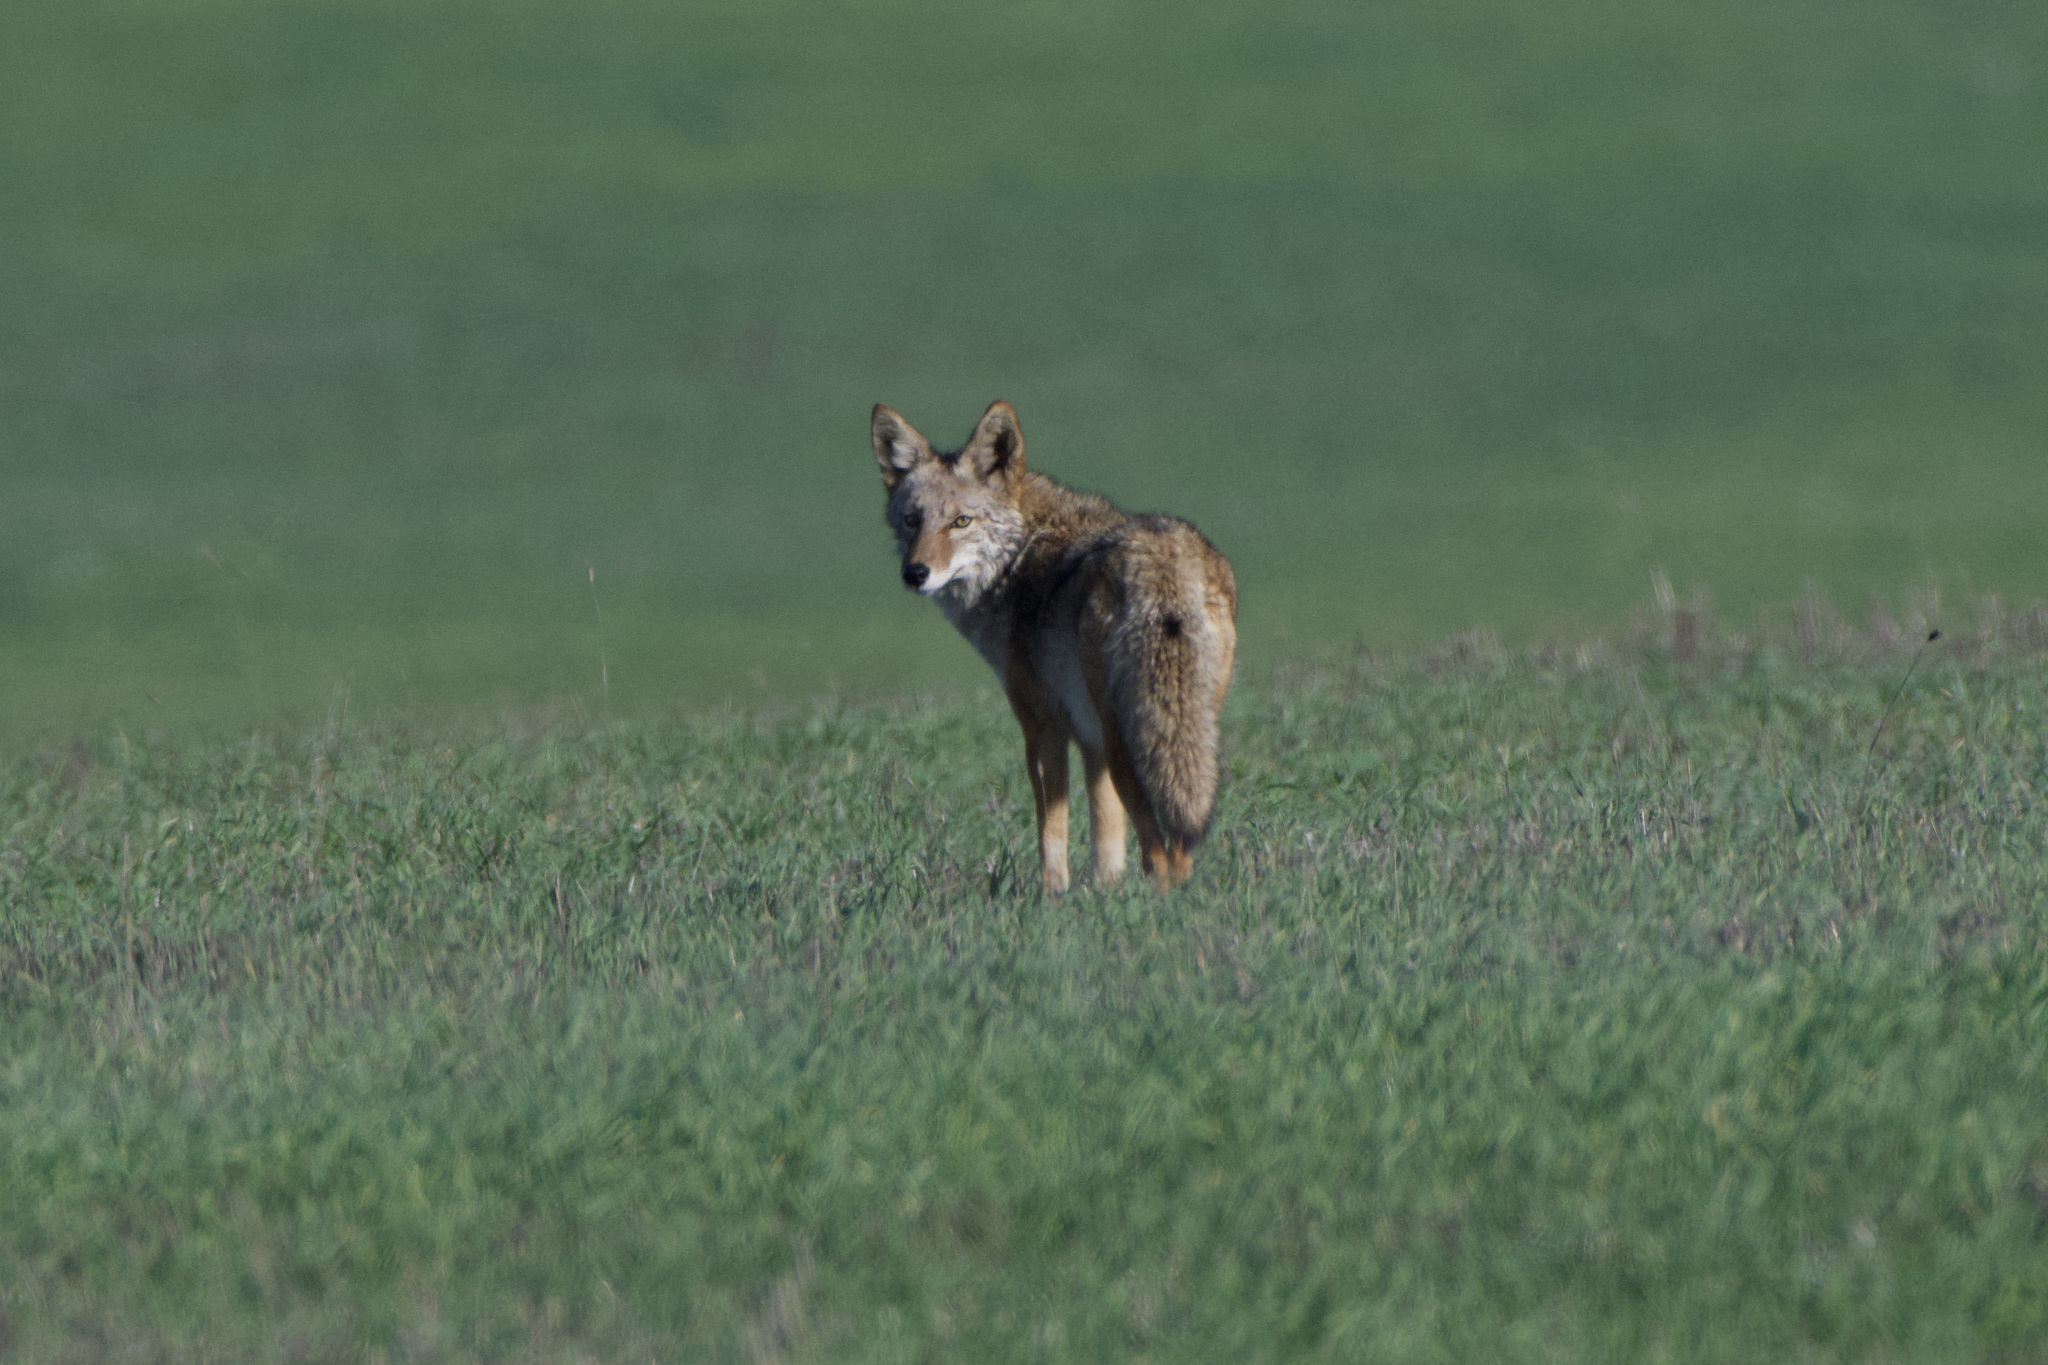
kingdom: Animalia
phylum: Chordata
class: Mammalia
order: Carnivora
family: Canidae
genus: Canis
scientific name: Canis latrans
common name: Coyote
